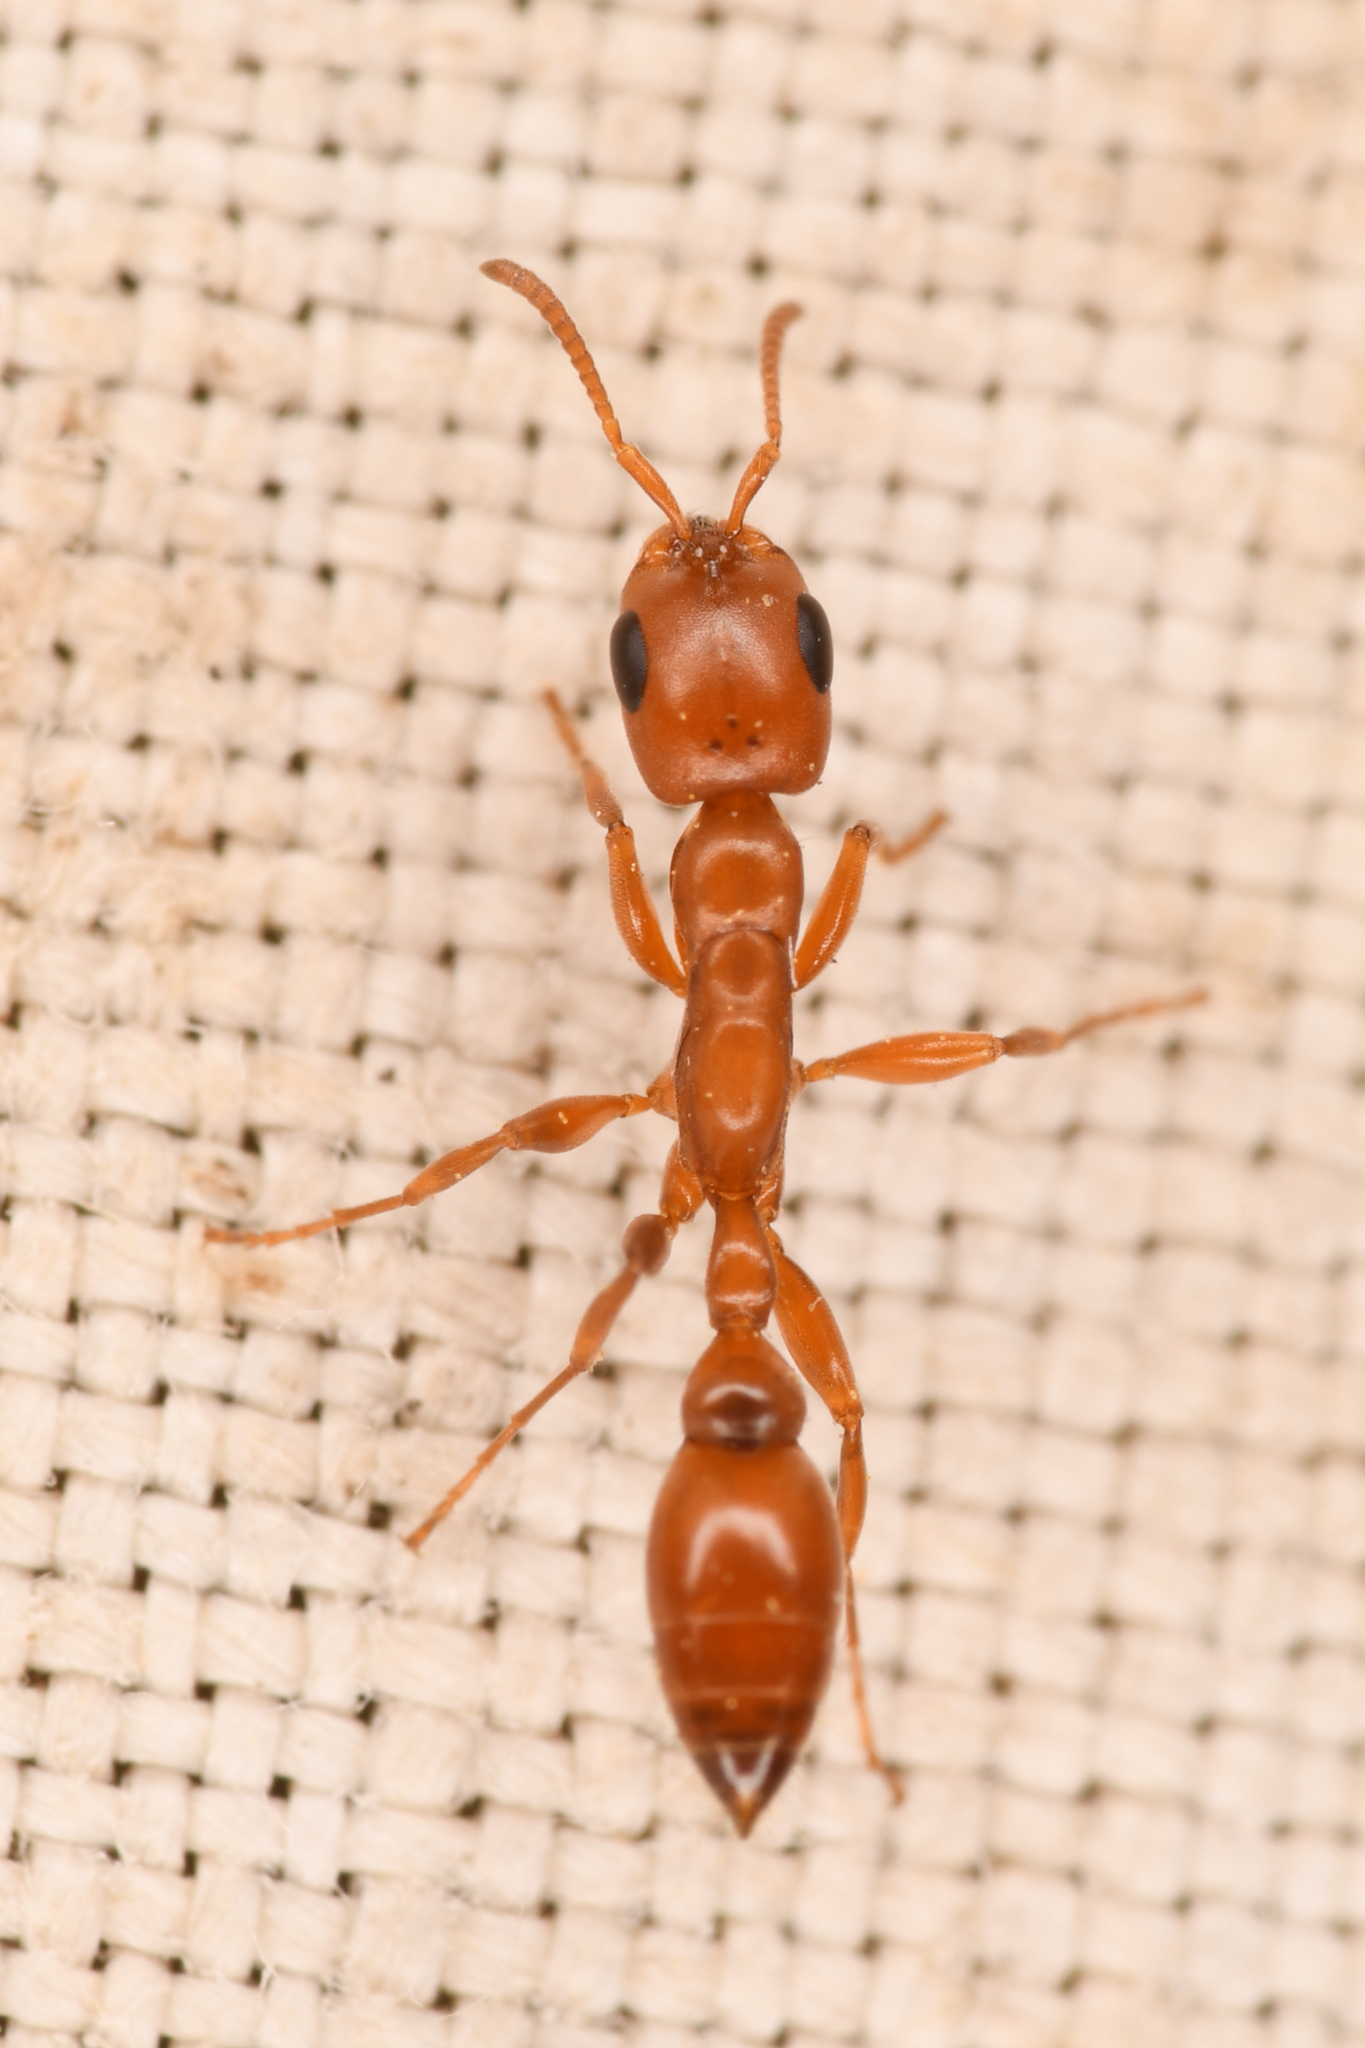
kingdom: Animalia
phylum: Arthropoda
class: Insecta
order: Hymenoptera
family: Formicidae
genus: Pseudomyrmex
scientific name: Pseudomyrmex apache
